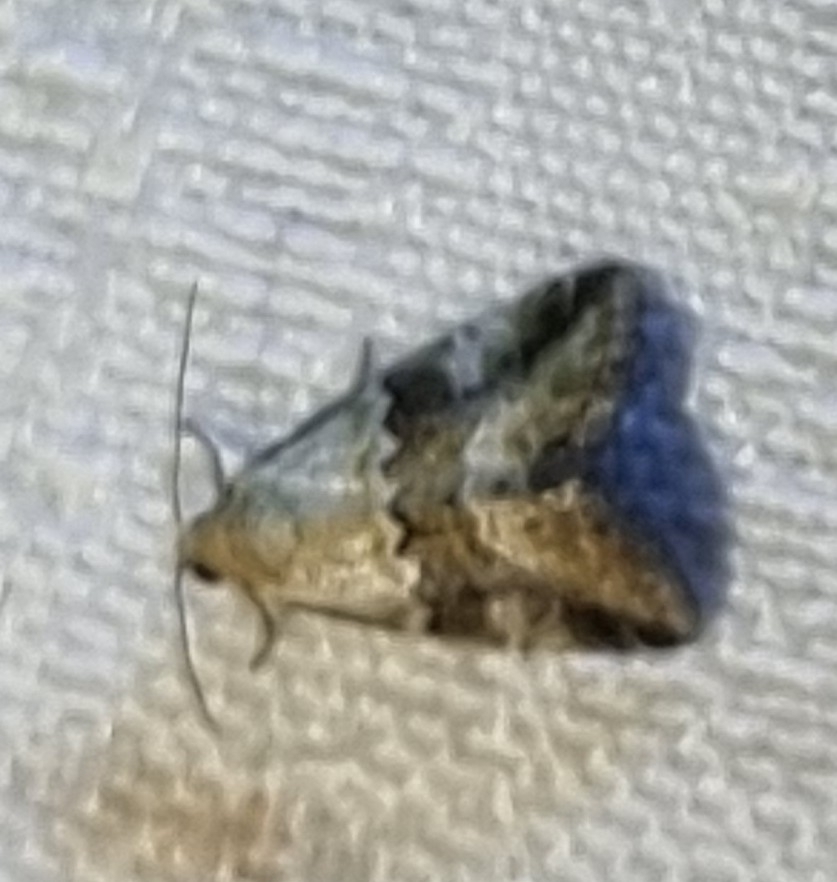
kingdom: Animalia
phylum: Arthropoda
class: Insecta
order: Lepidoptera
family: Noctuidae
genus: Maliattha
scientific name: Maliattha amorpha
